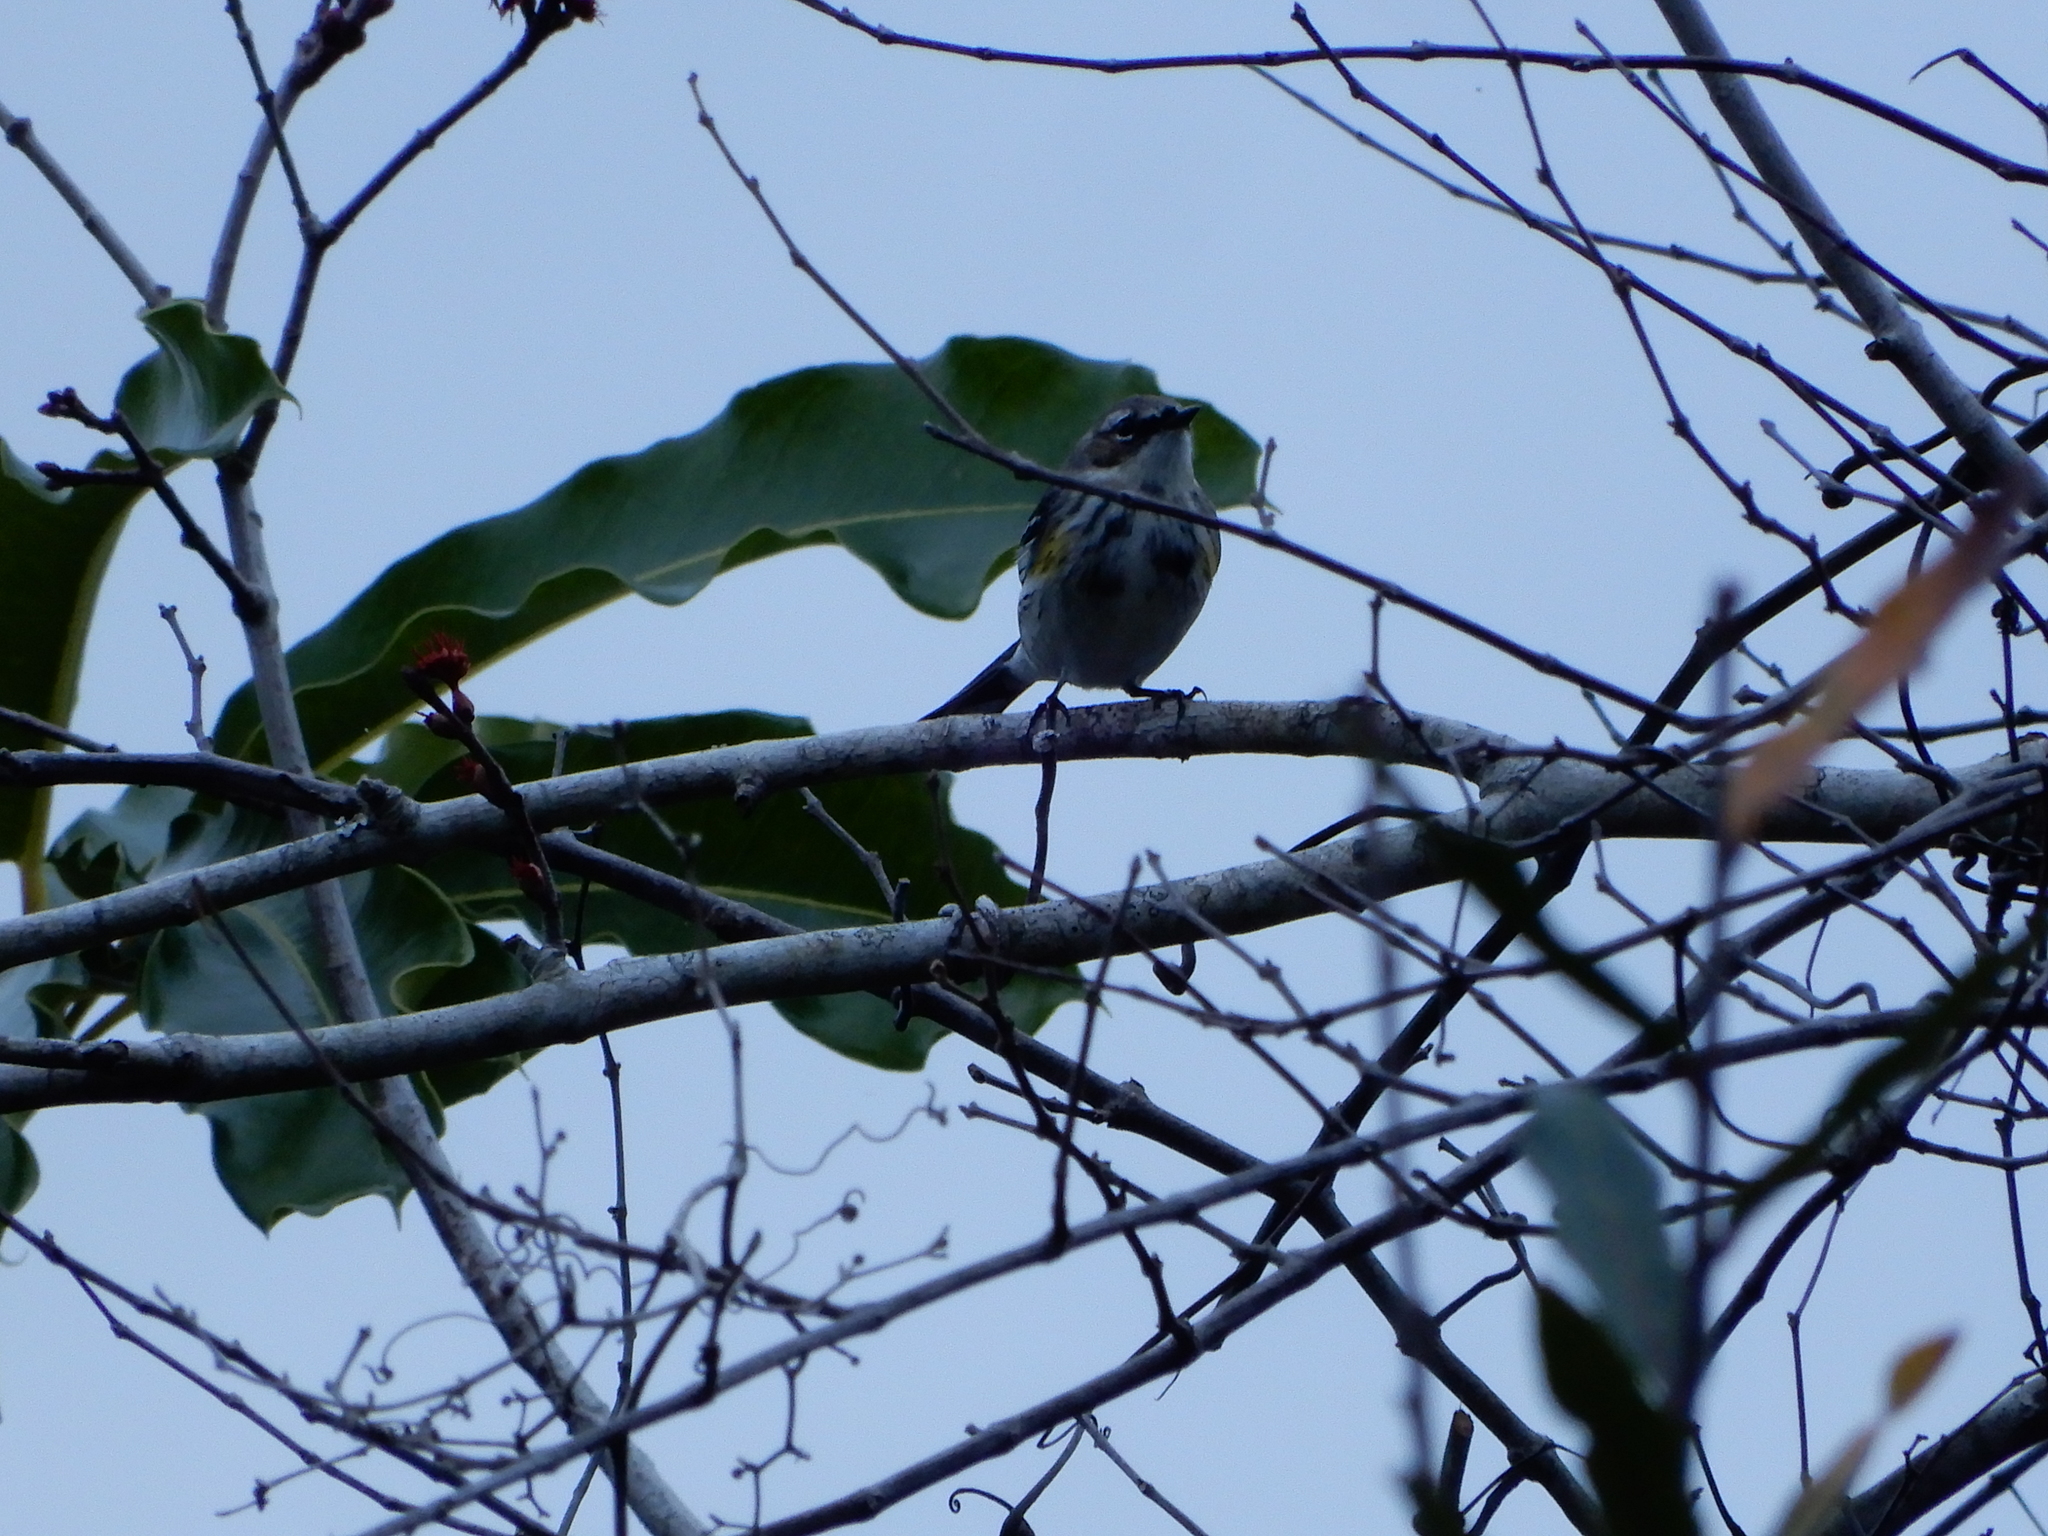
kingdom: Animalia
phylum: Chordata
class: Aves
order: Passeriformes
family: Parulidae
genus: Setophaga
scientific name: Setophaga coronata
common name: Myrtle warbler
